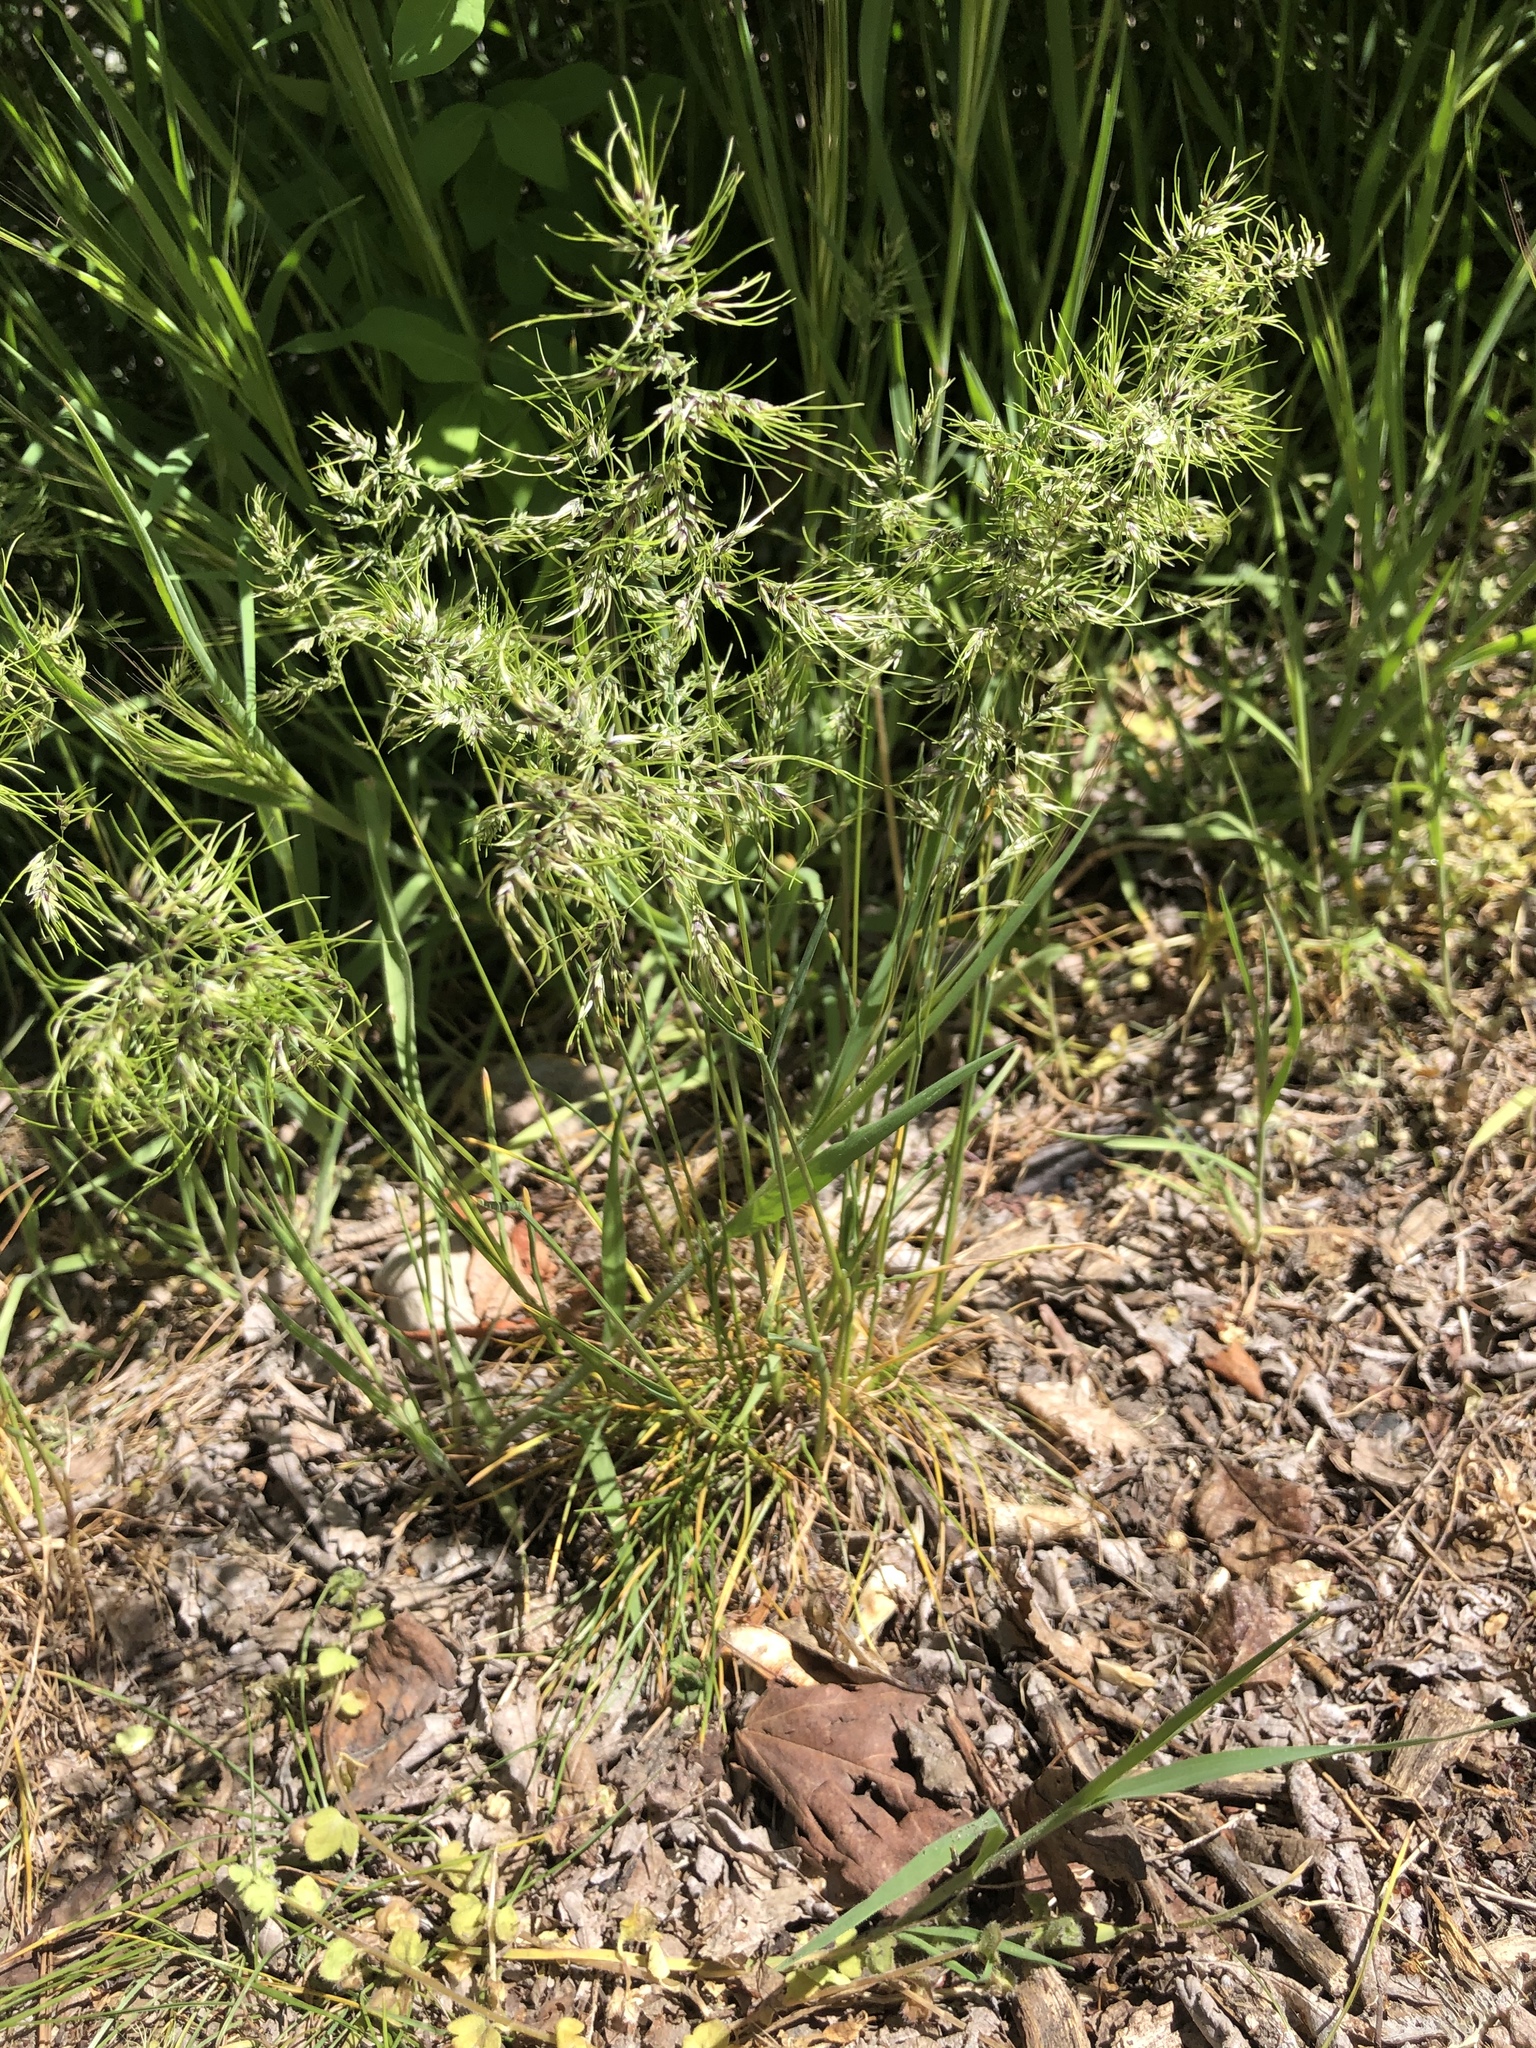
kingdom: Plantae
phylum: Tracheophyta
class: Liliopsida
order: Poales
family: Poaceae
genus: Poa
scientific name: Poa bulbosa
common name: Bulbous bluegrass
